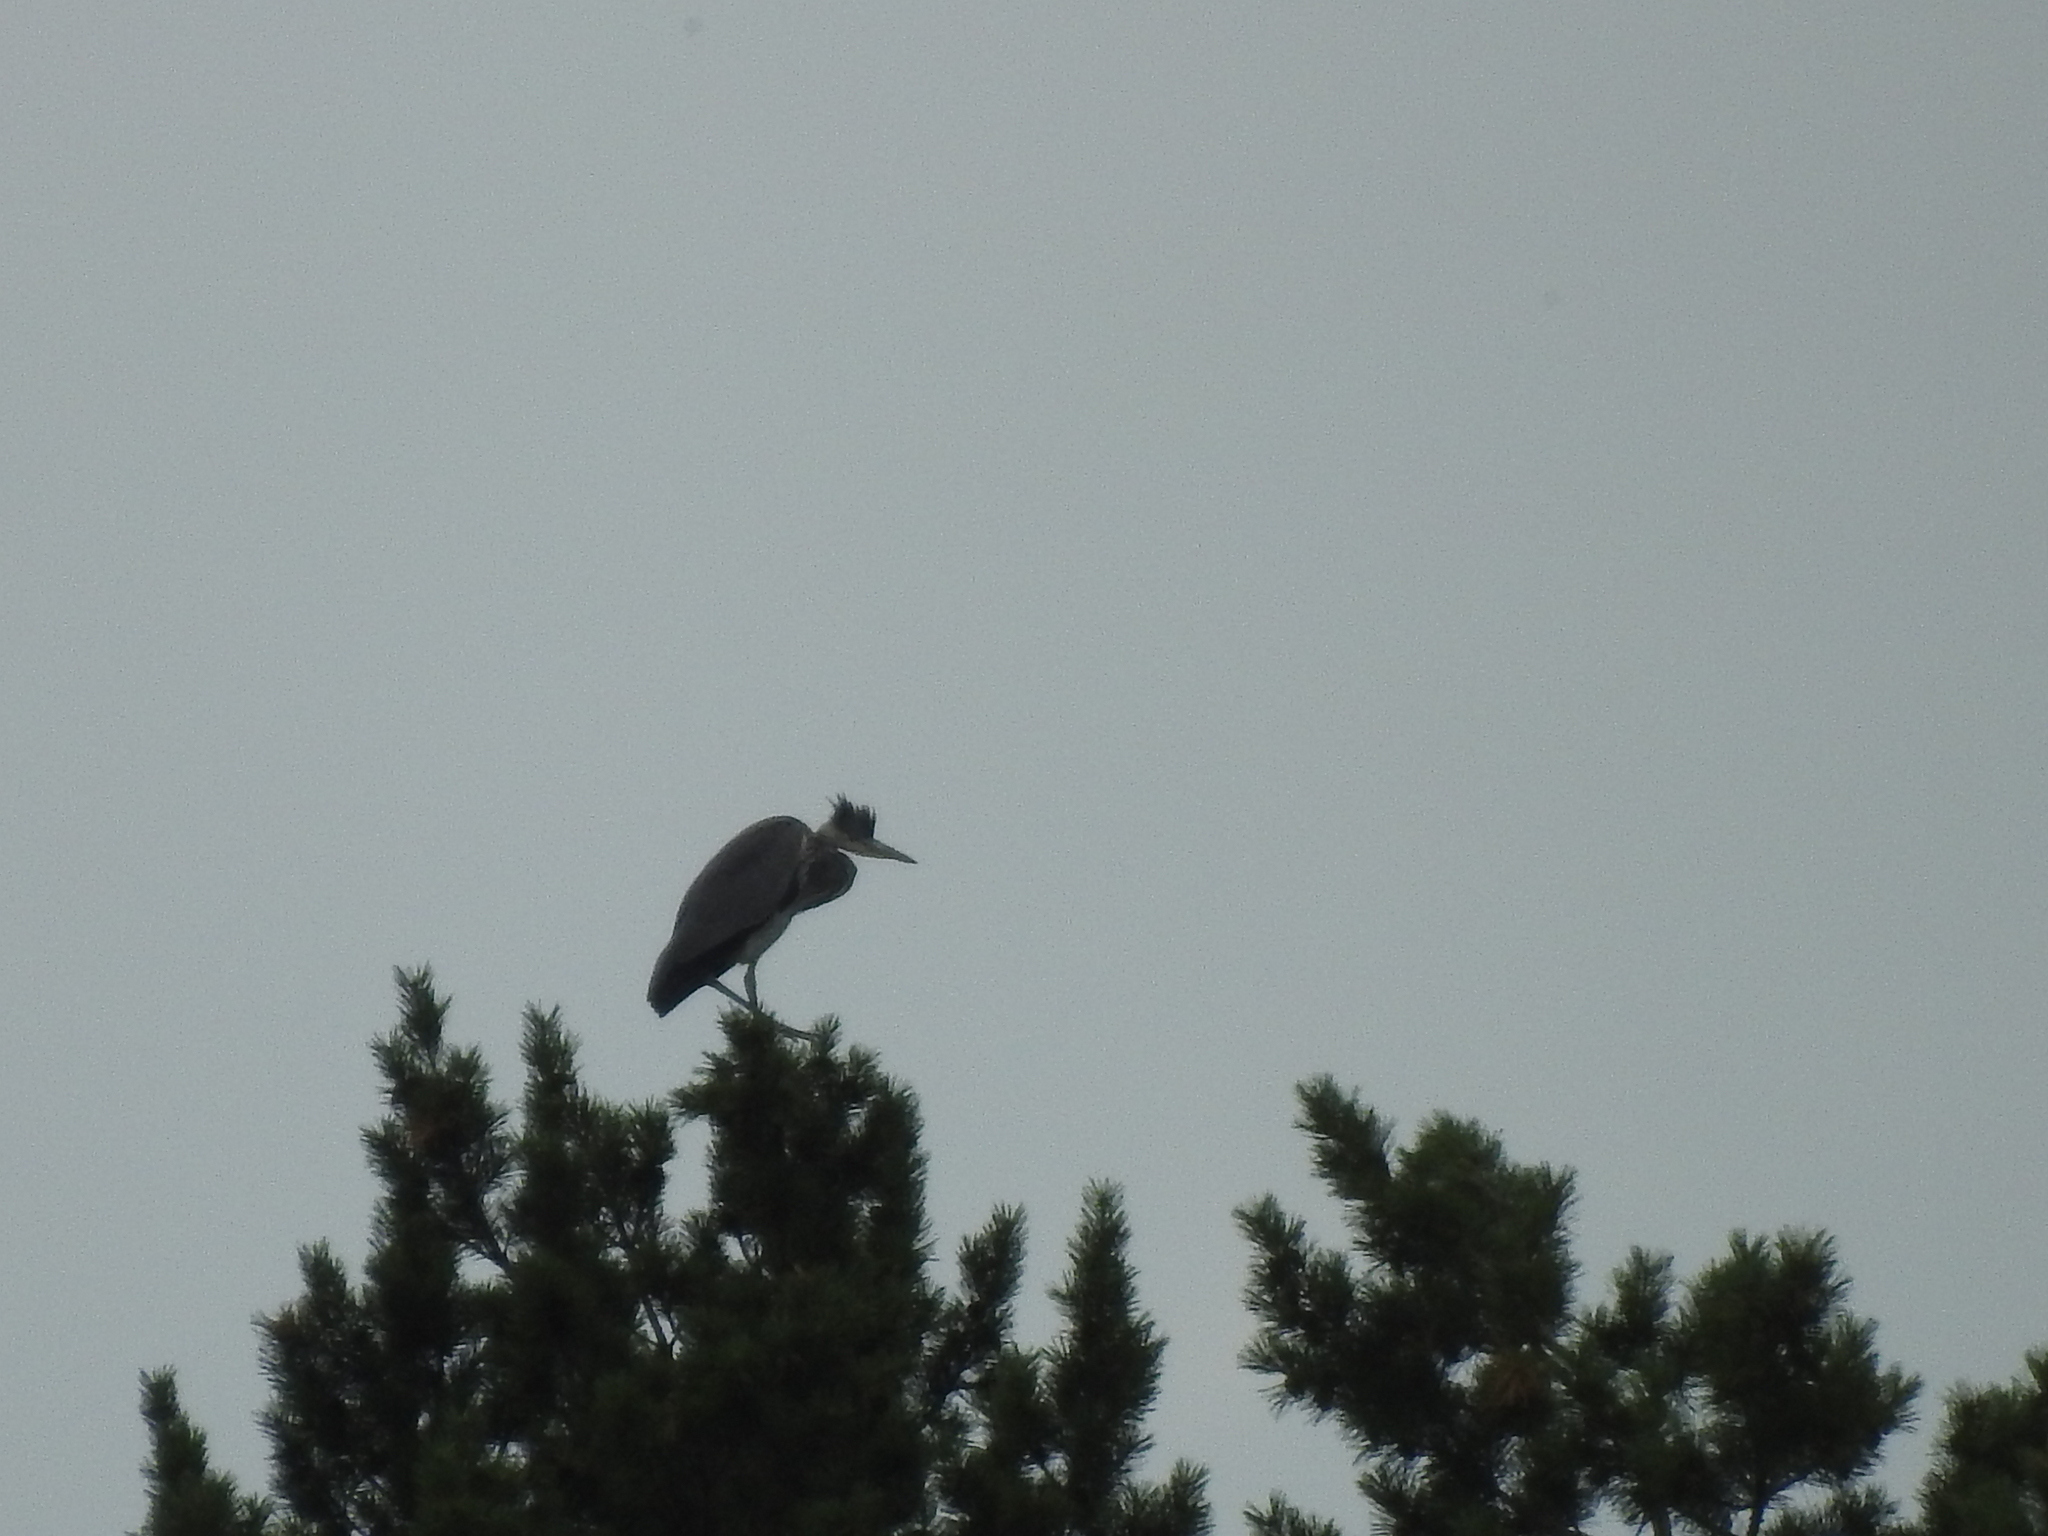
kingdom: Animalia
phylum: Chordata
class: Aves
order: Pelecaniformes
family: Ardeidae
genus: Ardea
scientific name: Ardea cinerea
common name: Grey heron
